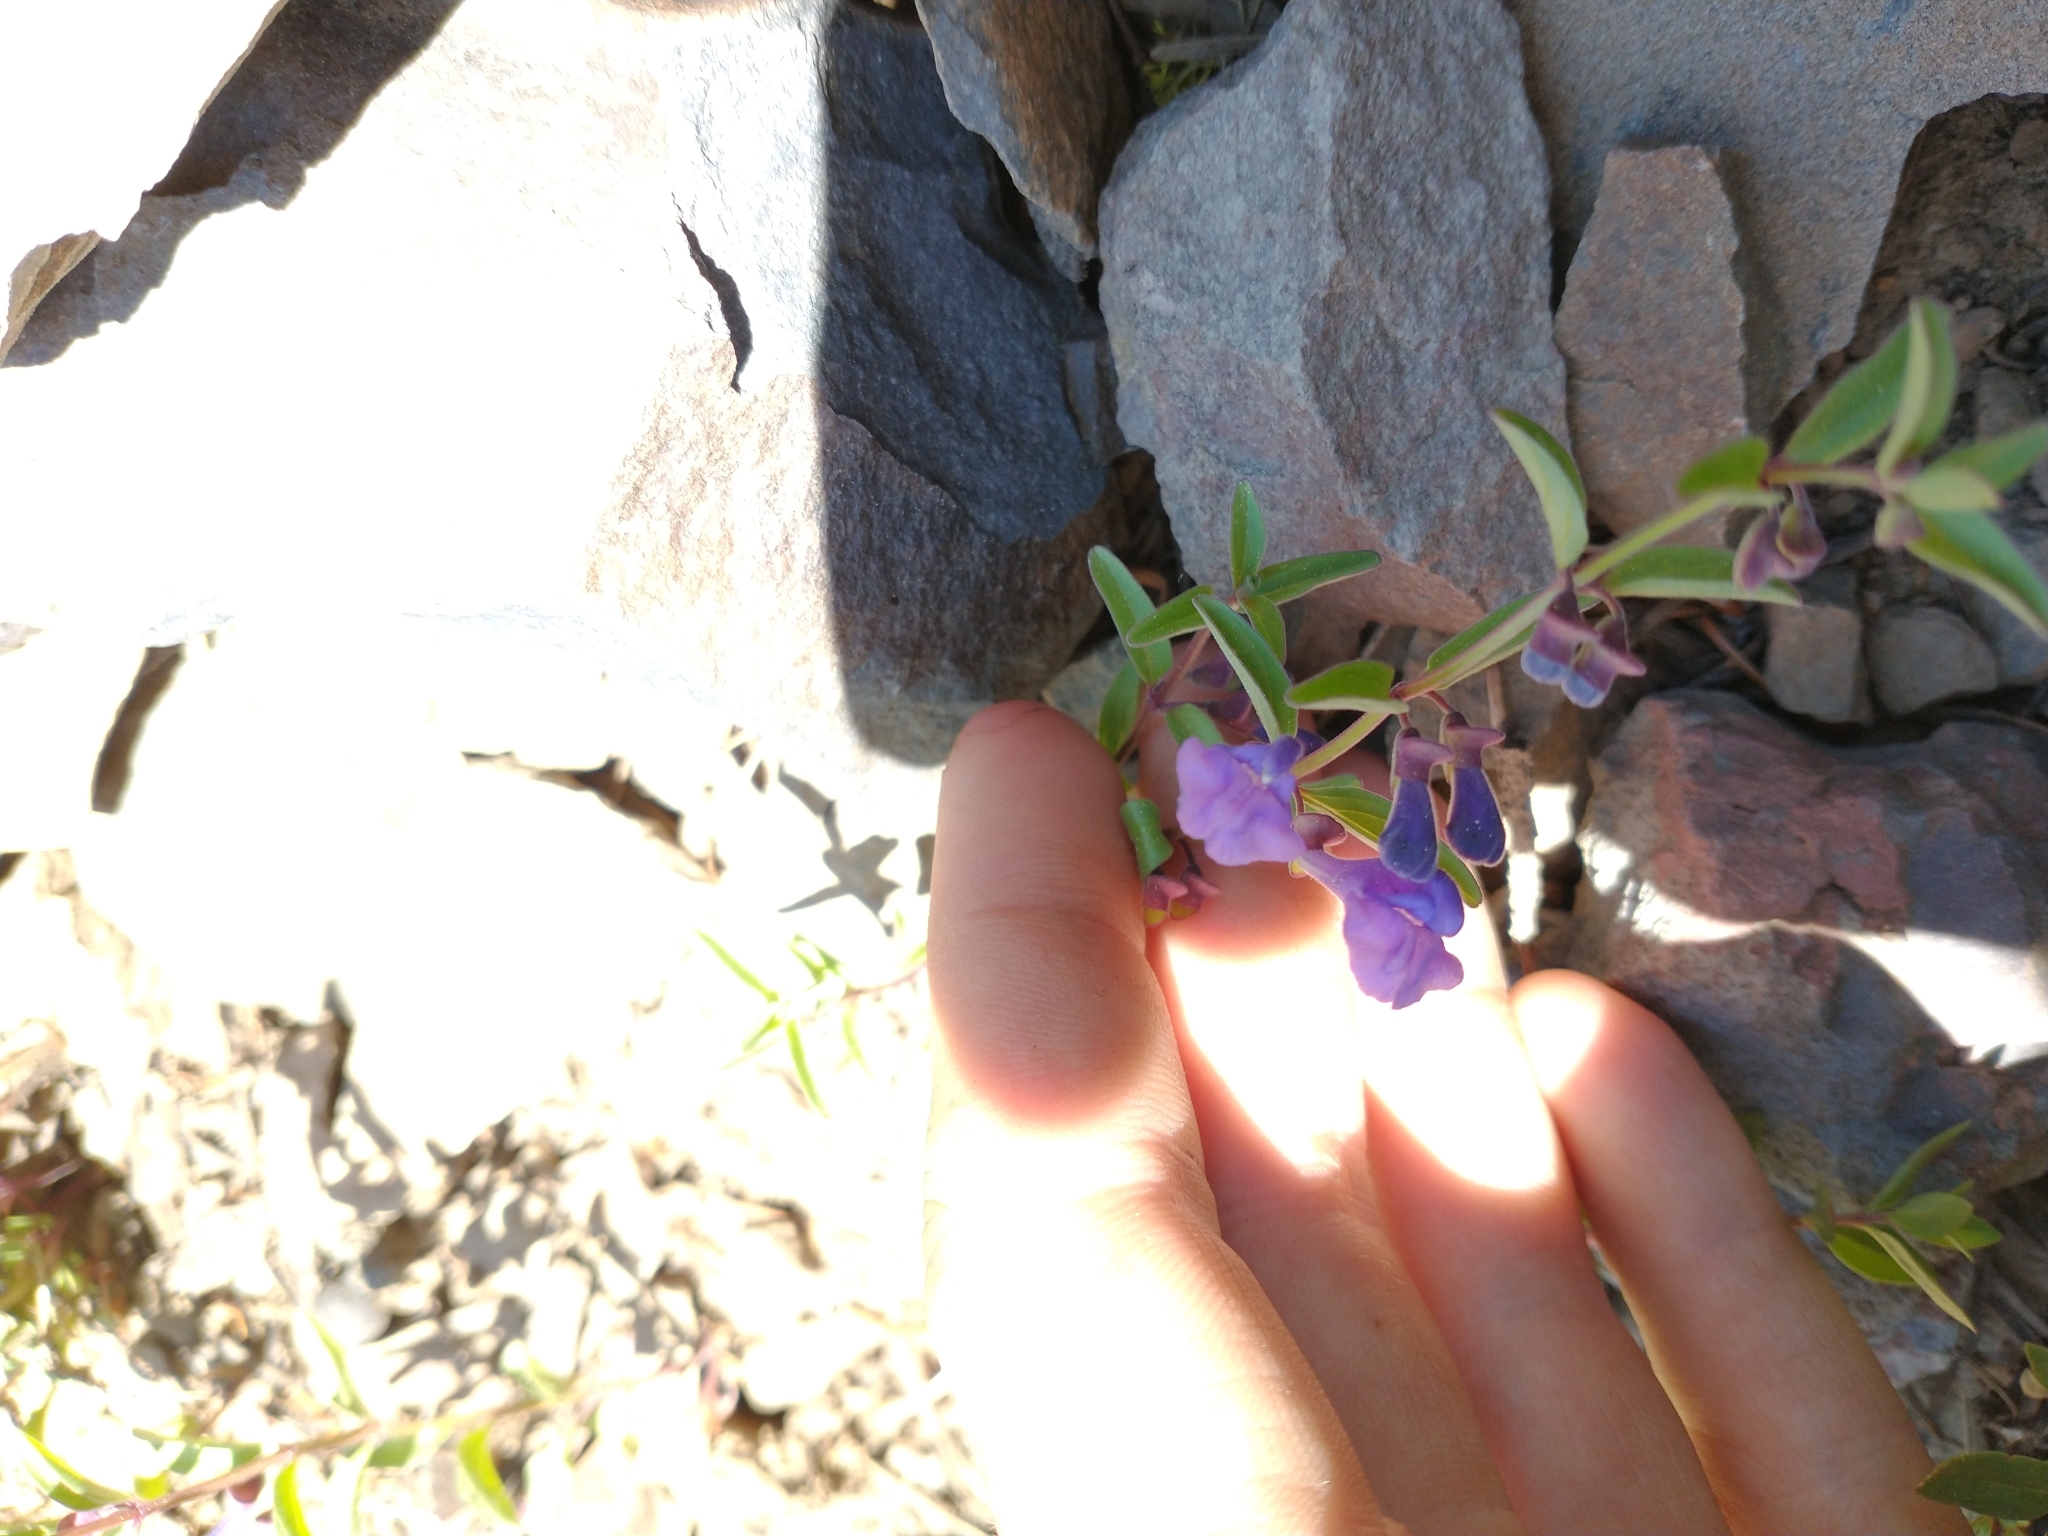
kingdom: Plantae
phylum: Tracheophyta
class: Magnoliopsida
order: Lamiales
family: Lamiaceae
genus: Scutellaria
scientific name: Scutellaria angustifolia
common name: Narrow-leaved skullcap
